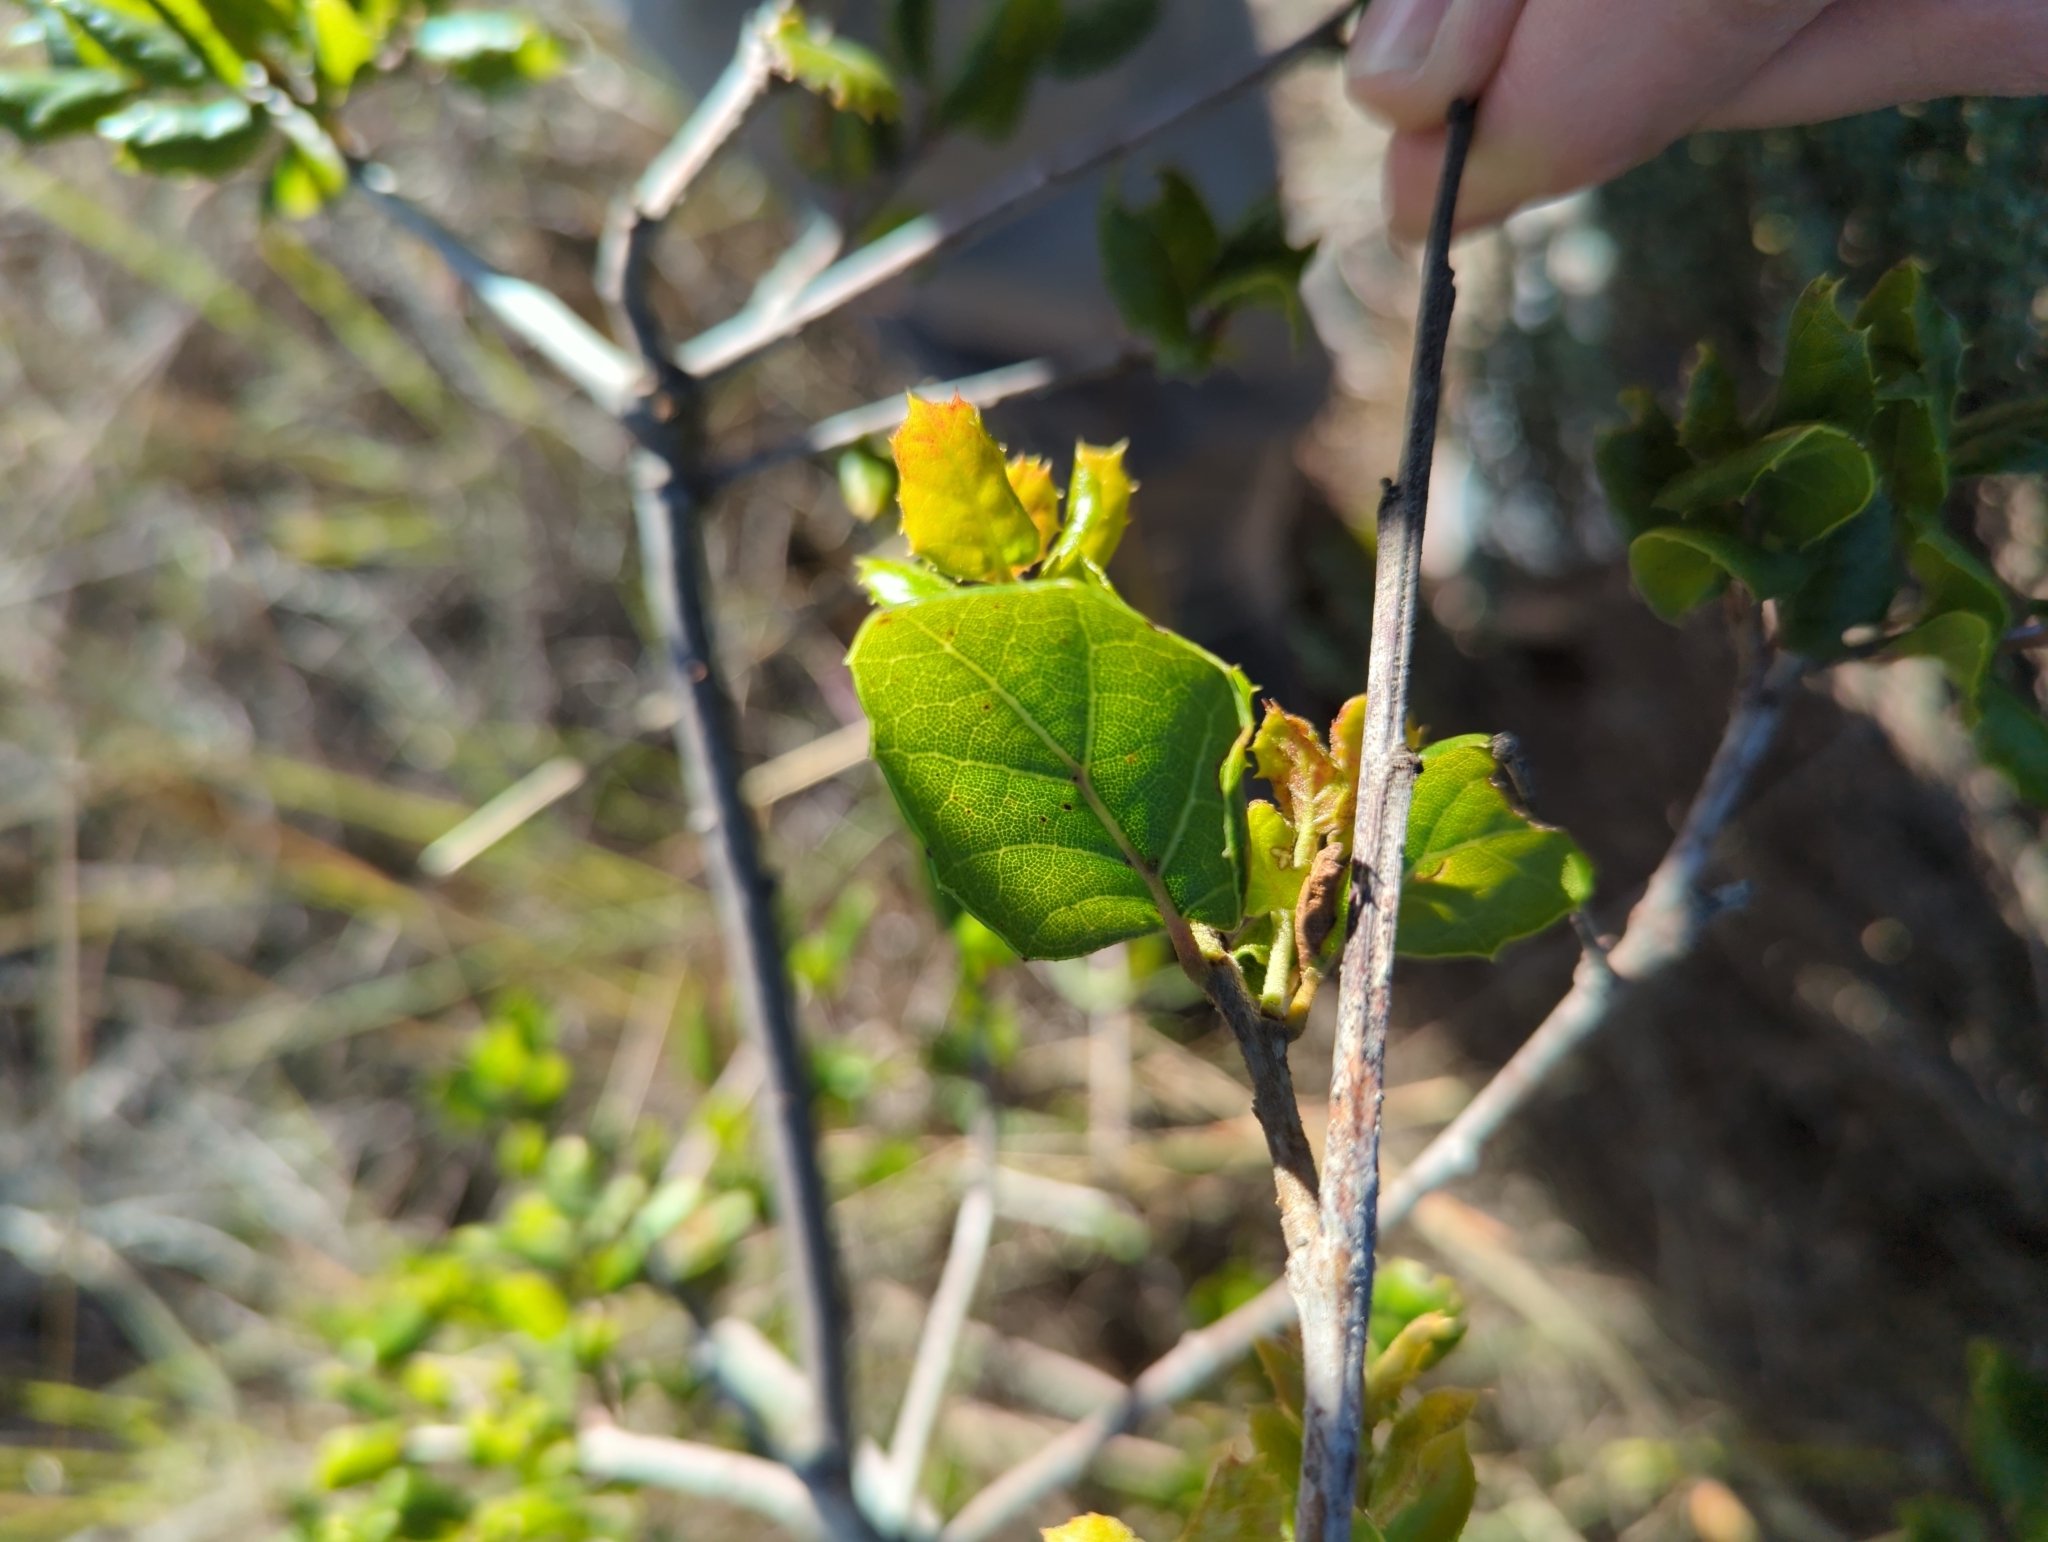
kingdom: Plantae
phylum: Tracheophyta
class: Magnoliopsida
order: Fagales
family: Fagaceae
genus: Quercus
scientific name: Quercus agrifolia
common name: California live oak
